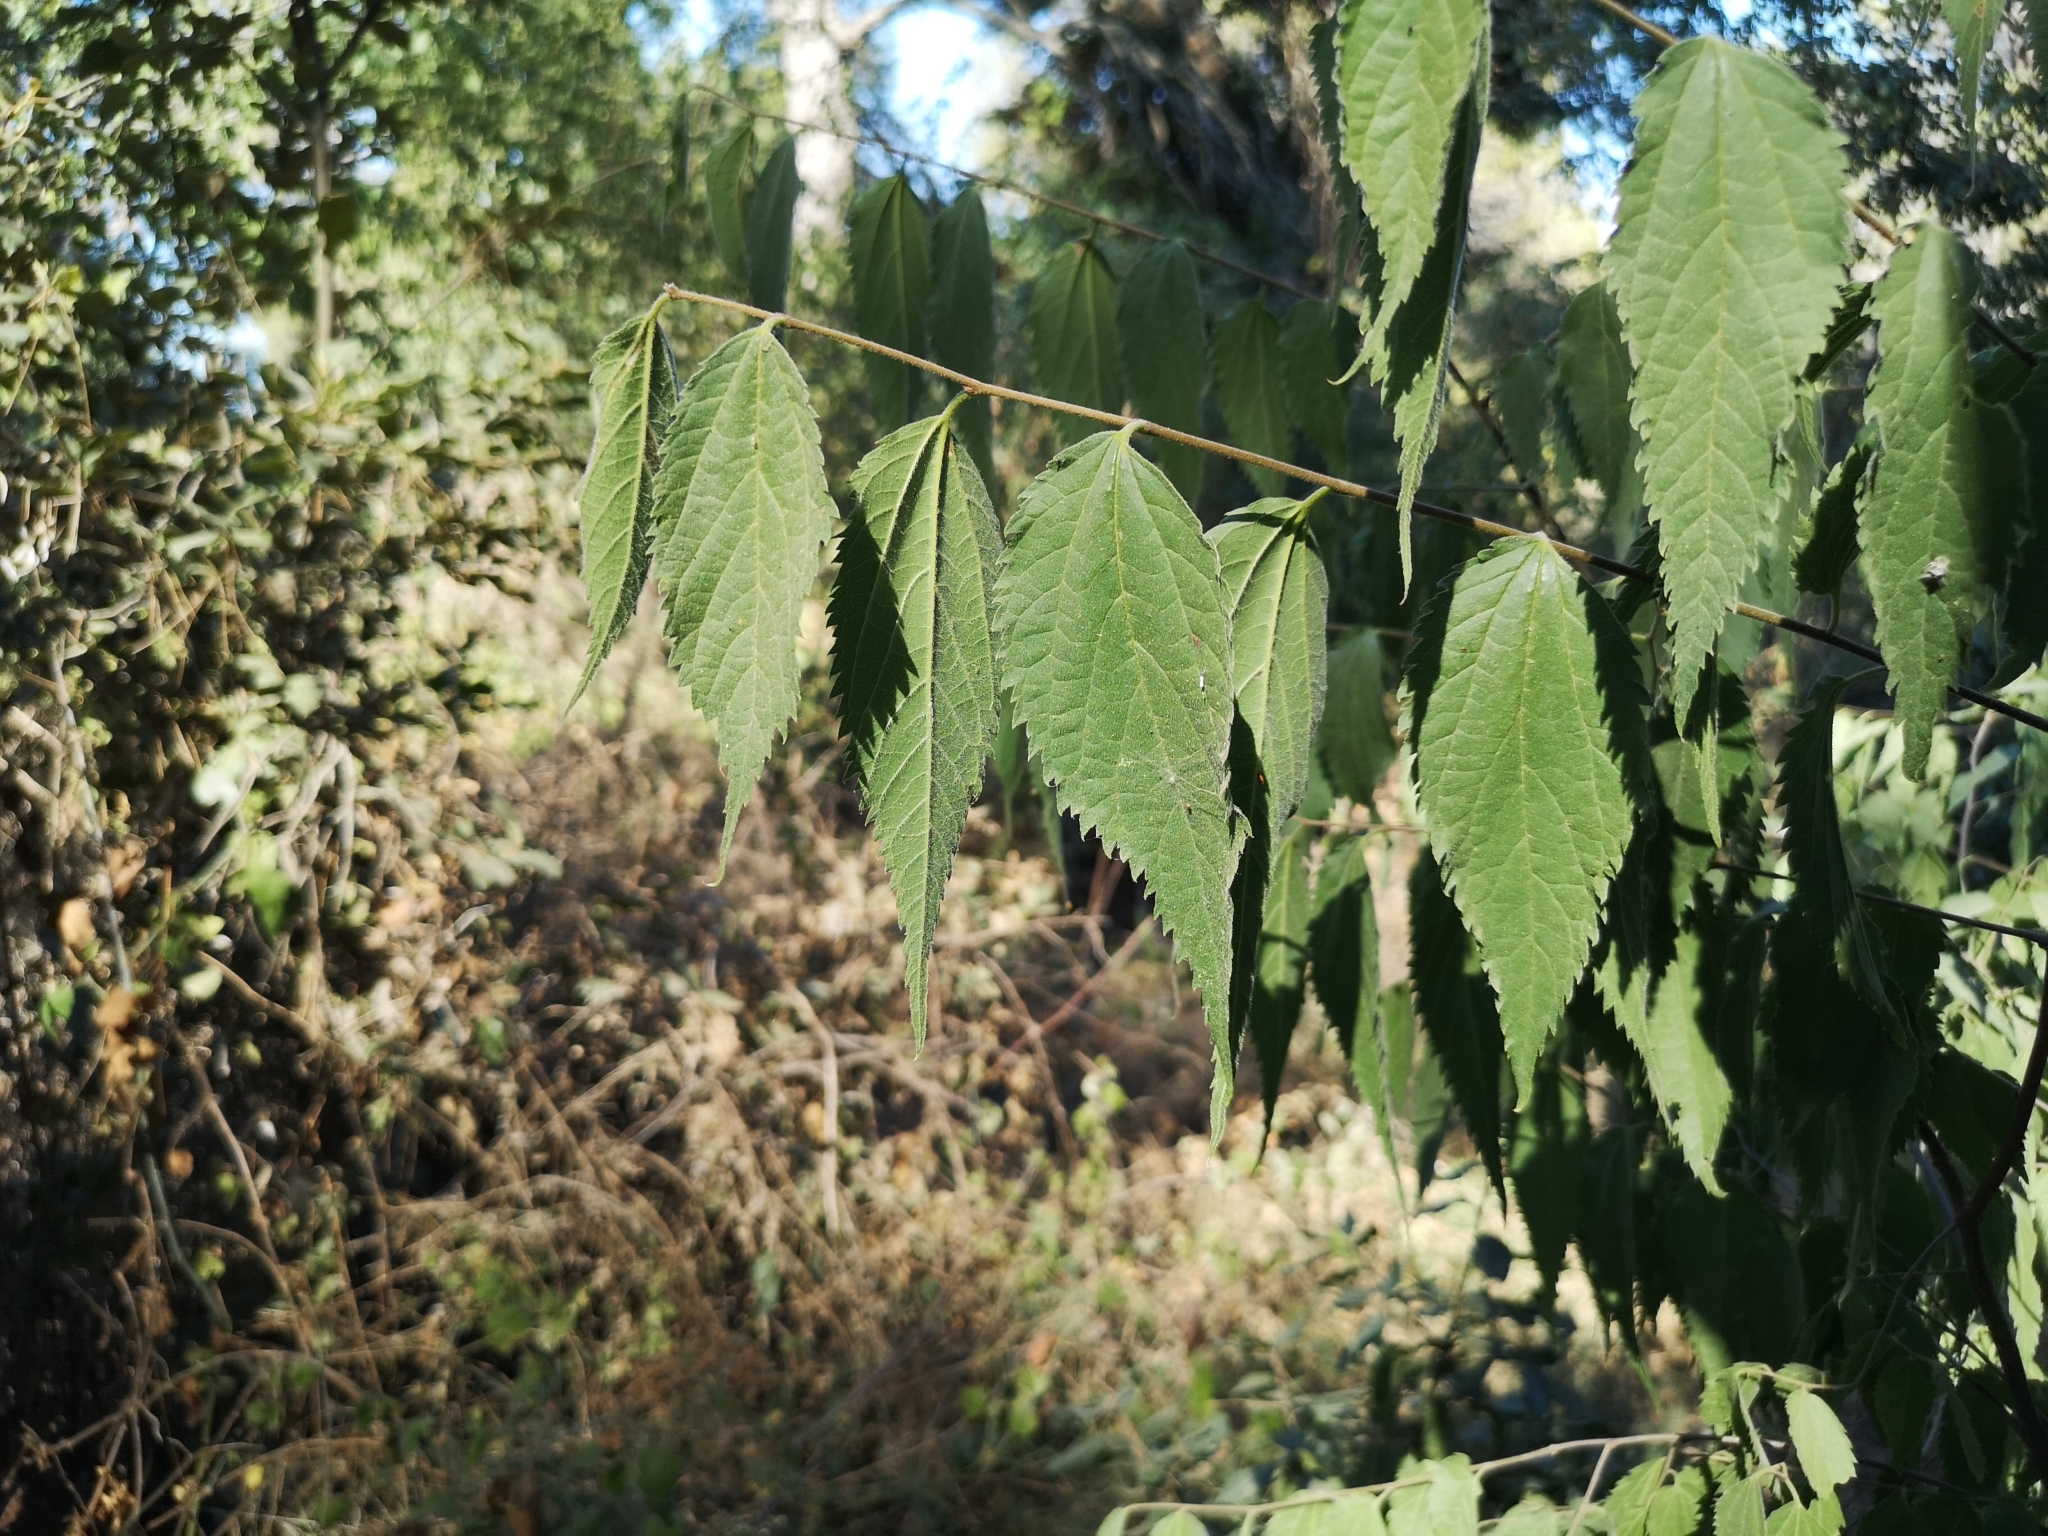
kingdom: Plantae
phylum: Tracheophyta
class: Magnoliopsida
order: Rosales
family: Cannabaceae
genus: Celtis
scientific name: Celtis australis
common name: European hackberry
